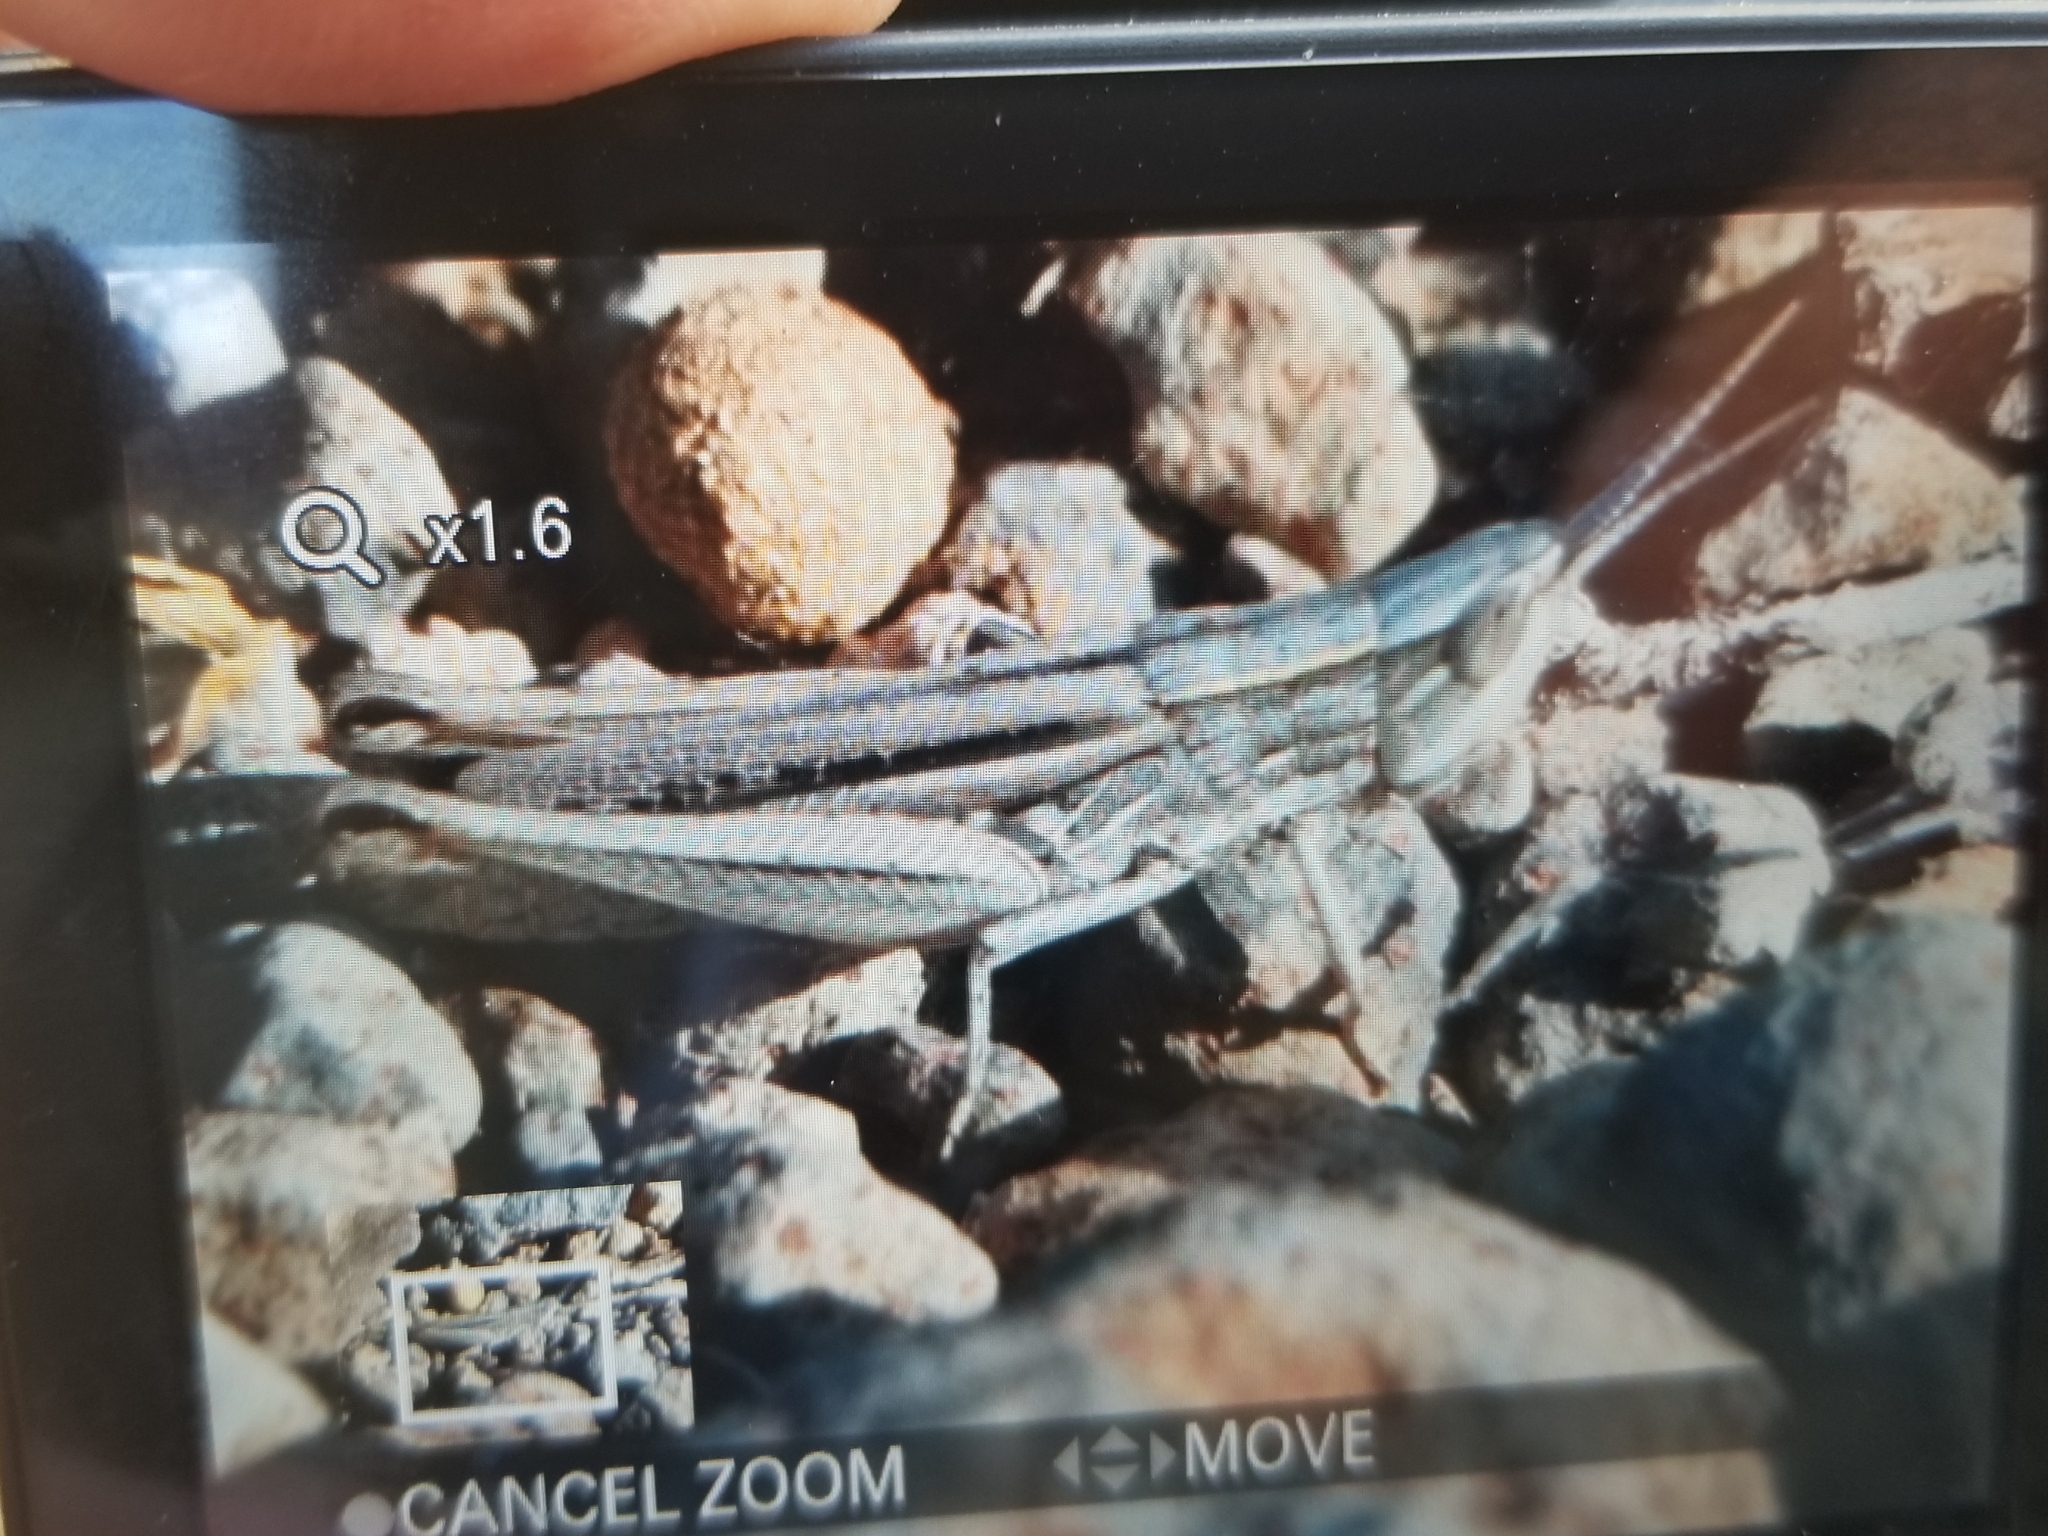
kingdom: Animalia
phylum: Arthropoda
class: Insecta
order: Orthoptera
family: Acrididae
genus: Opeia
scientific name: Opeia obscura
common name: Obscure grasshopper
